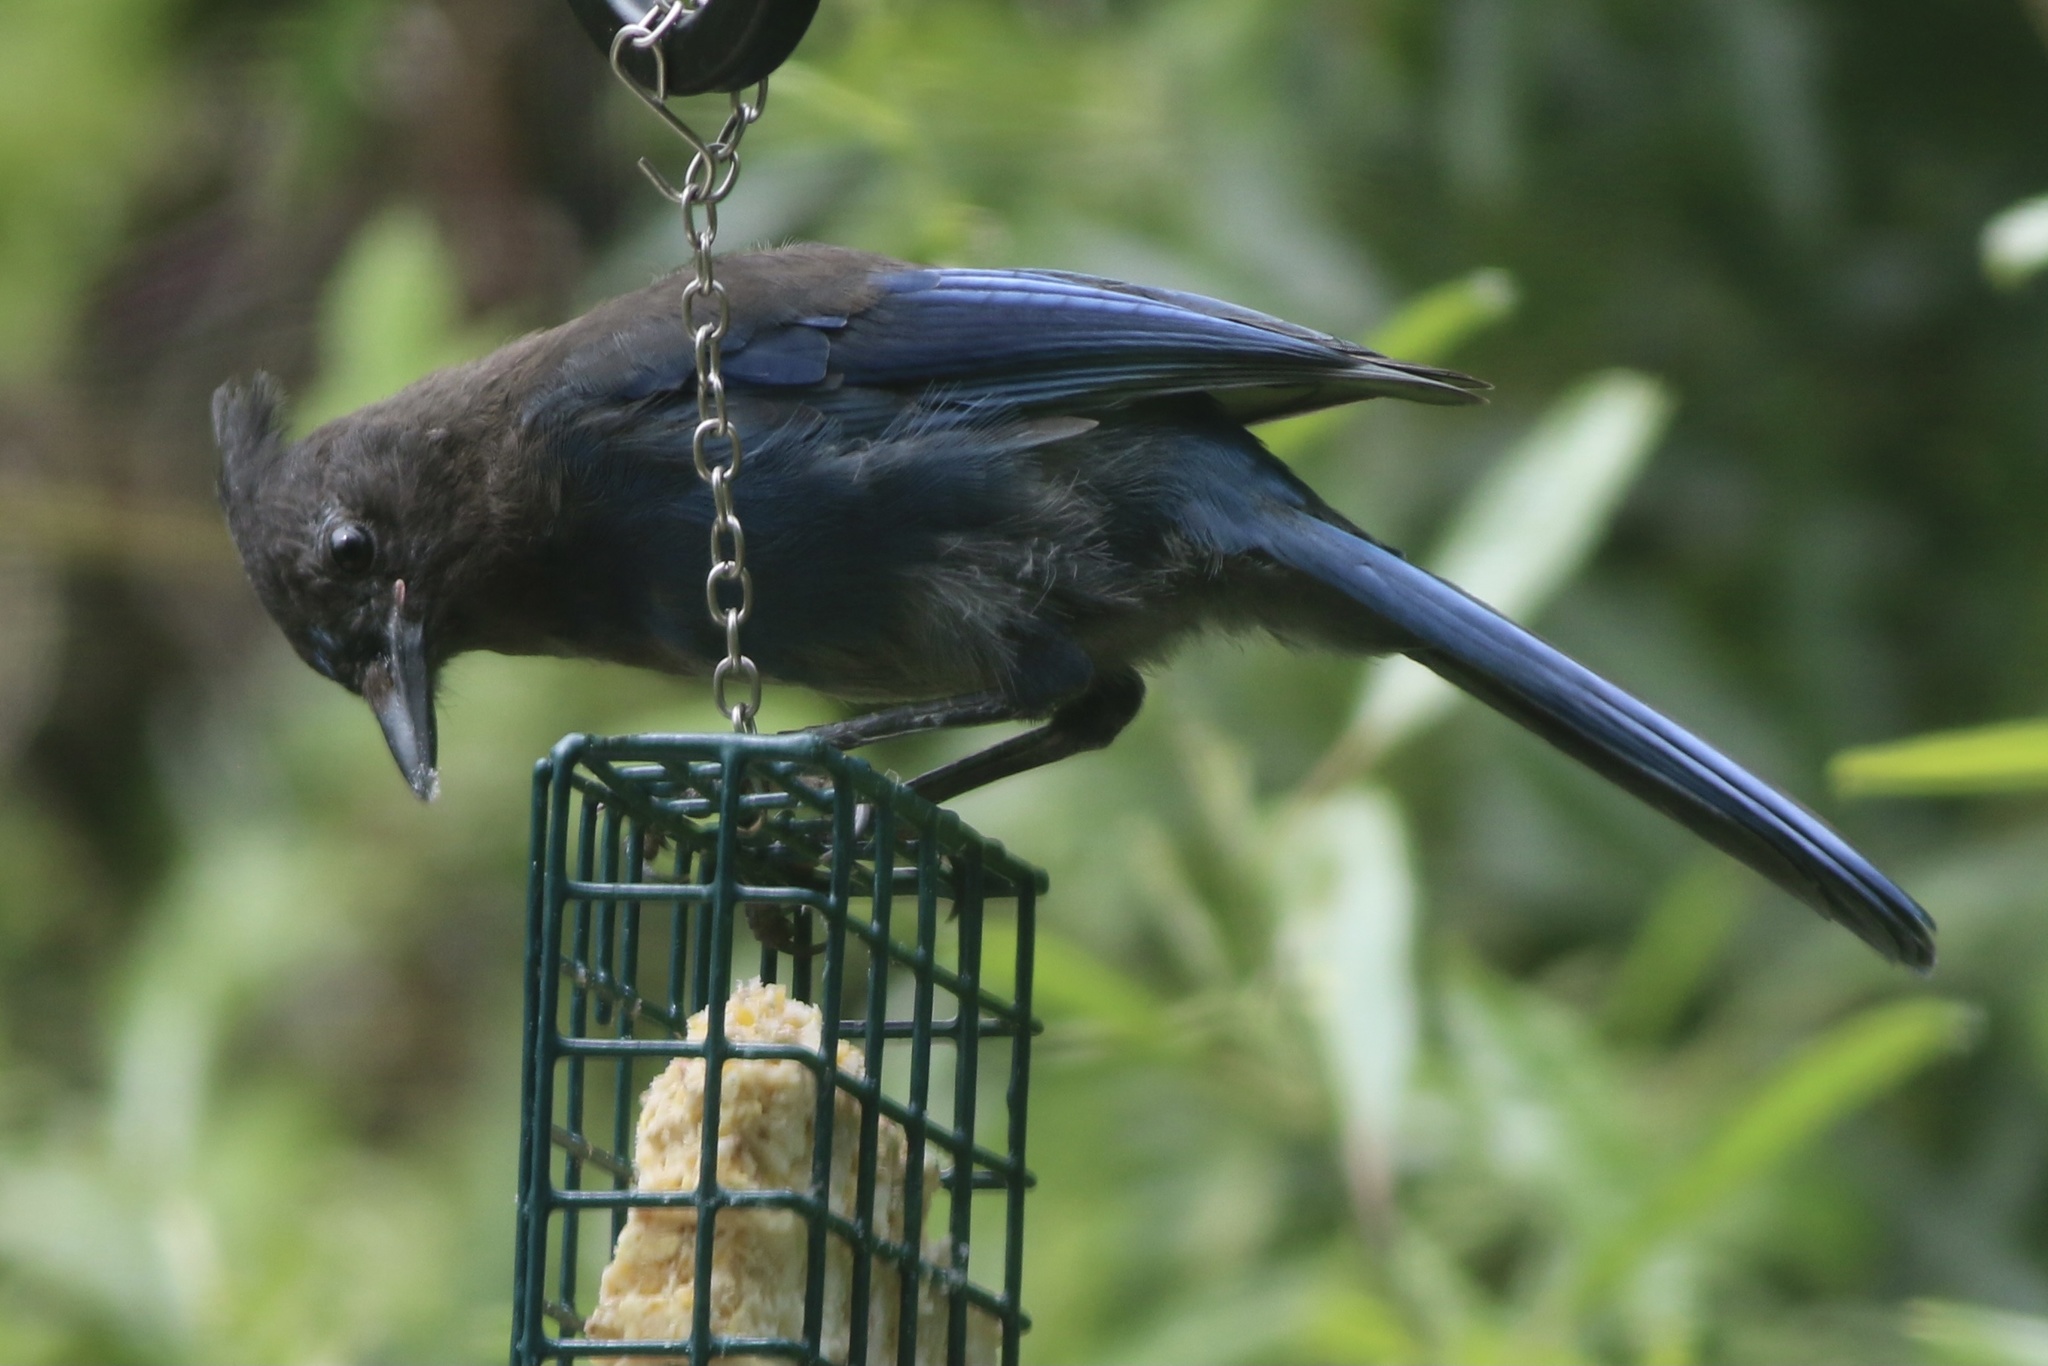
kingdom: Animalia
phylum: Chordata
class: Aves
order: Passeriformes
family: Corvidae
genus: Cyanocitta
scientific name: Cyanocitta stelleri
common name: Steller's jay
